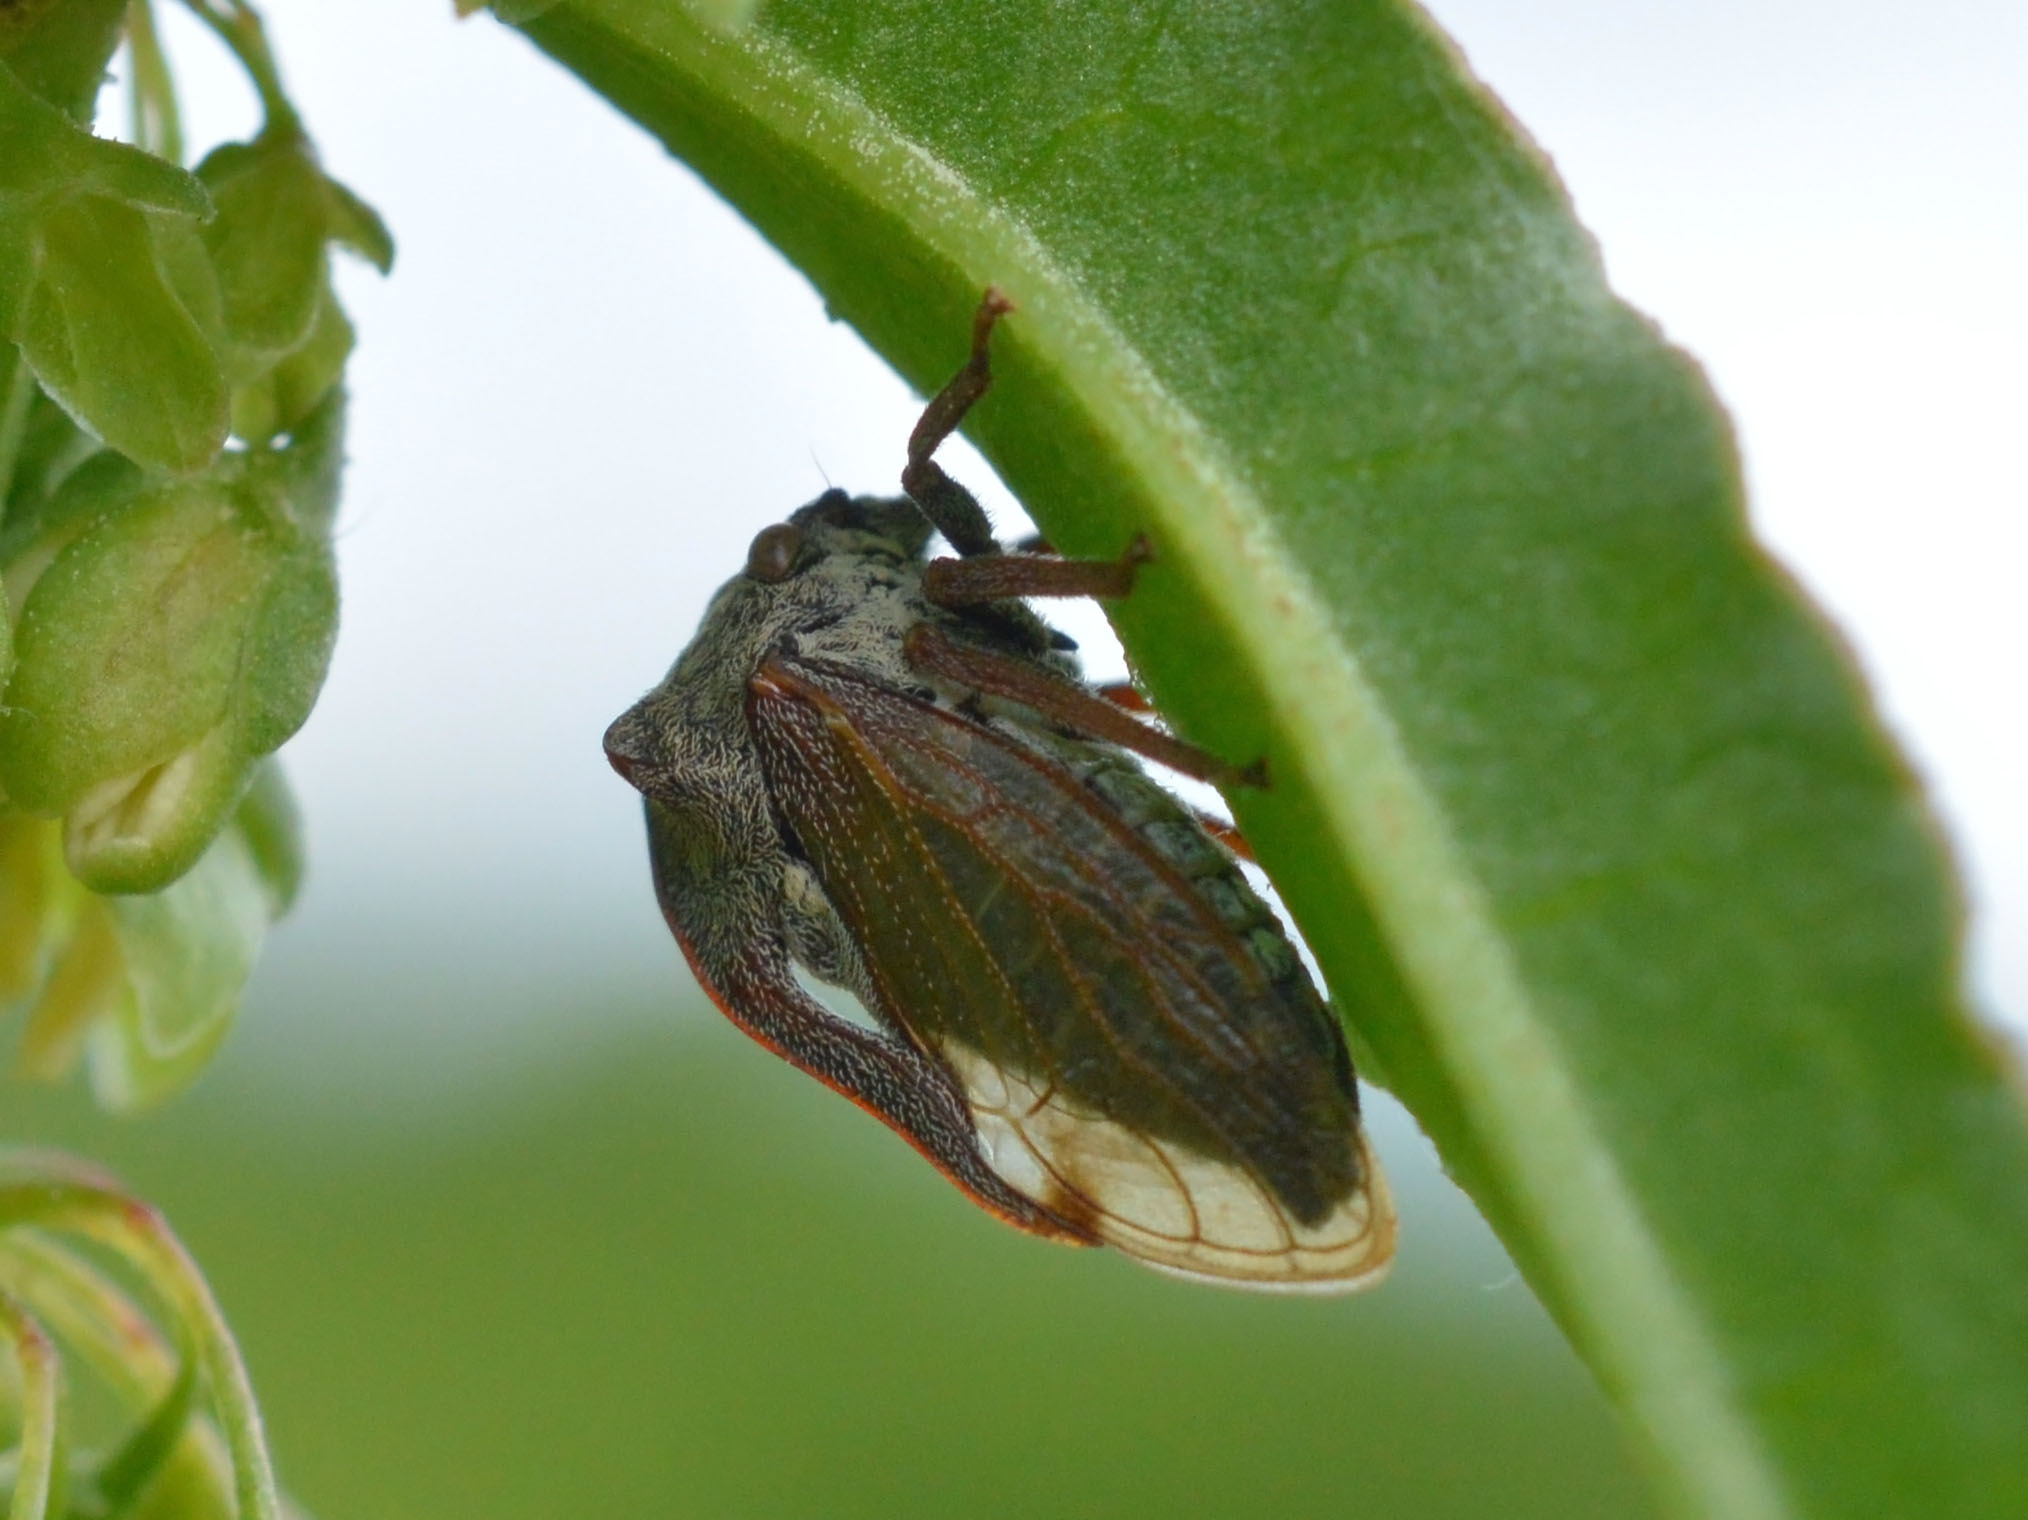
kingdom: Animalia
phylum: Arthropoda
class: Insecta
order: Hemiptera
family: Membracidae
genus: Centrotus
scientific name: Centrotus cornuta
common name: Treehopper
